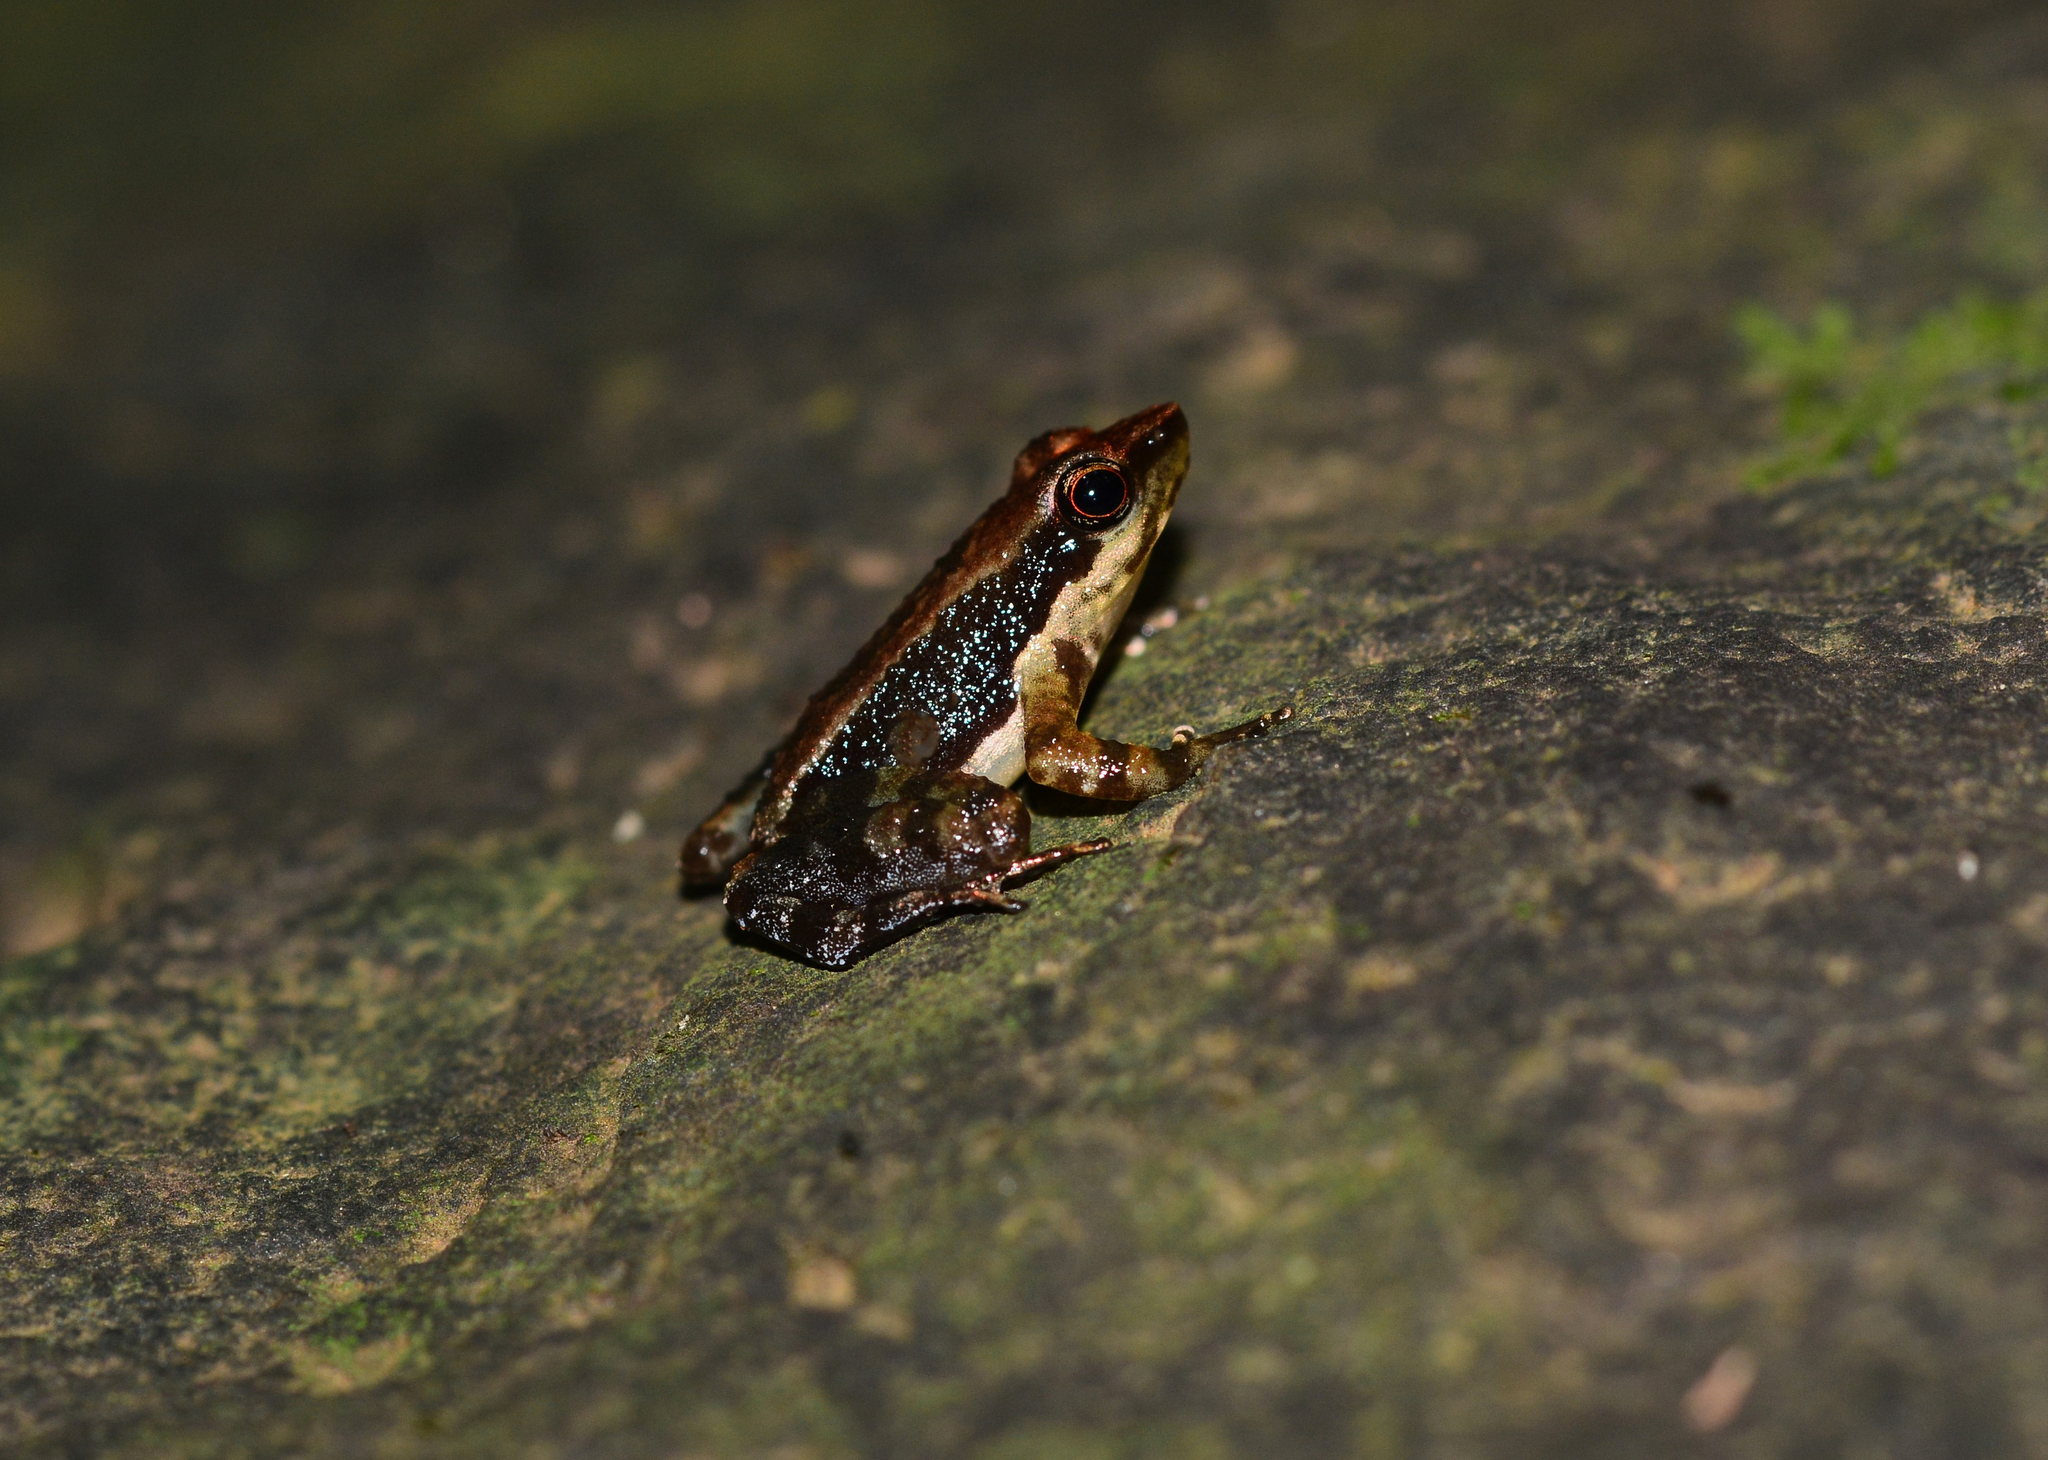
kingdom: Animalia
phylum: Chordata
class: Amphibia
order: Anura
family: Micrixalidae
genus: Micrixalus
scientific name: Micrixalus niluvasei
